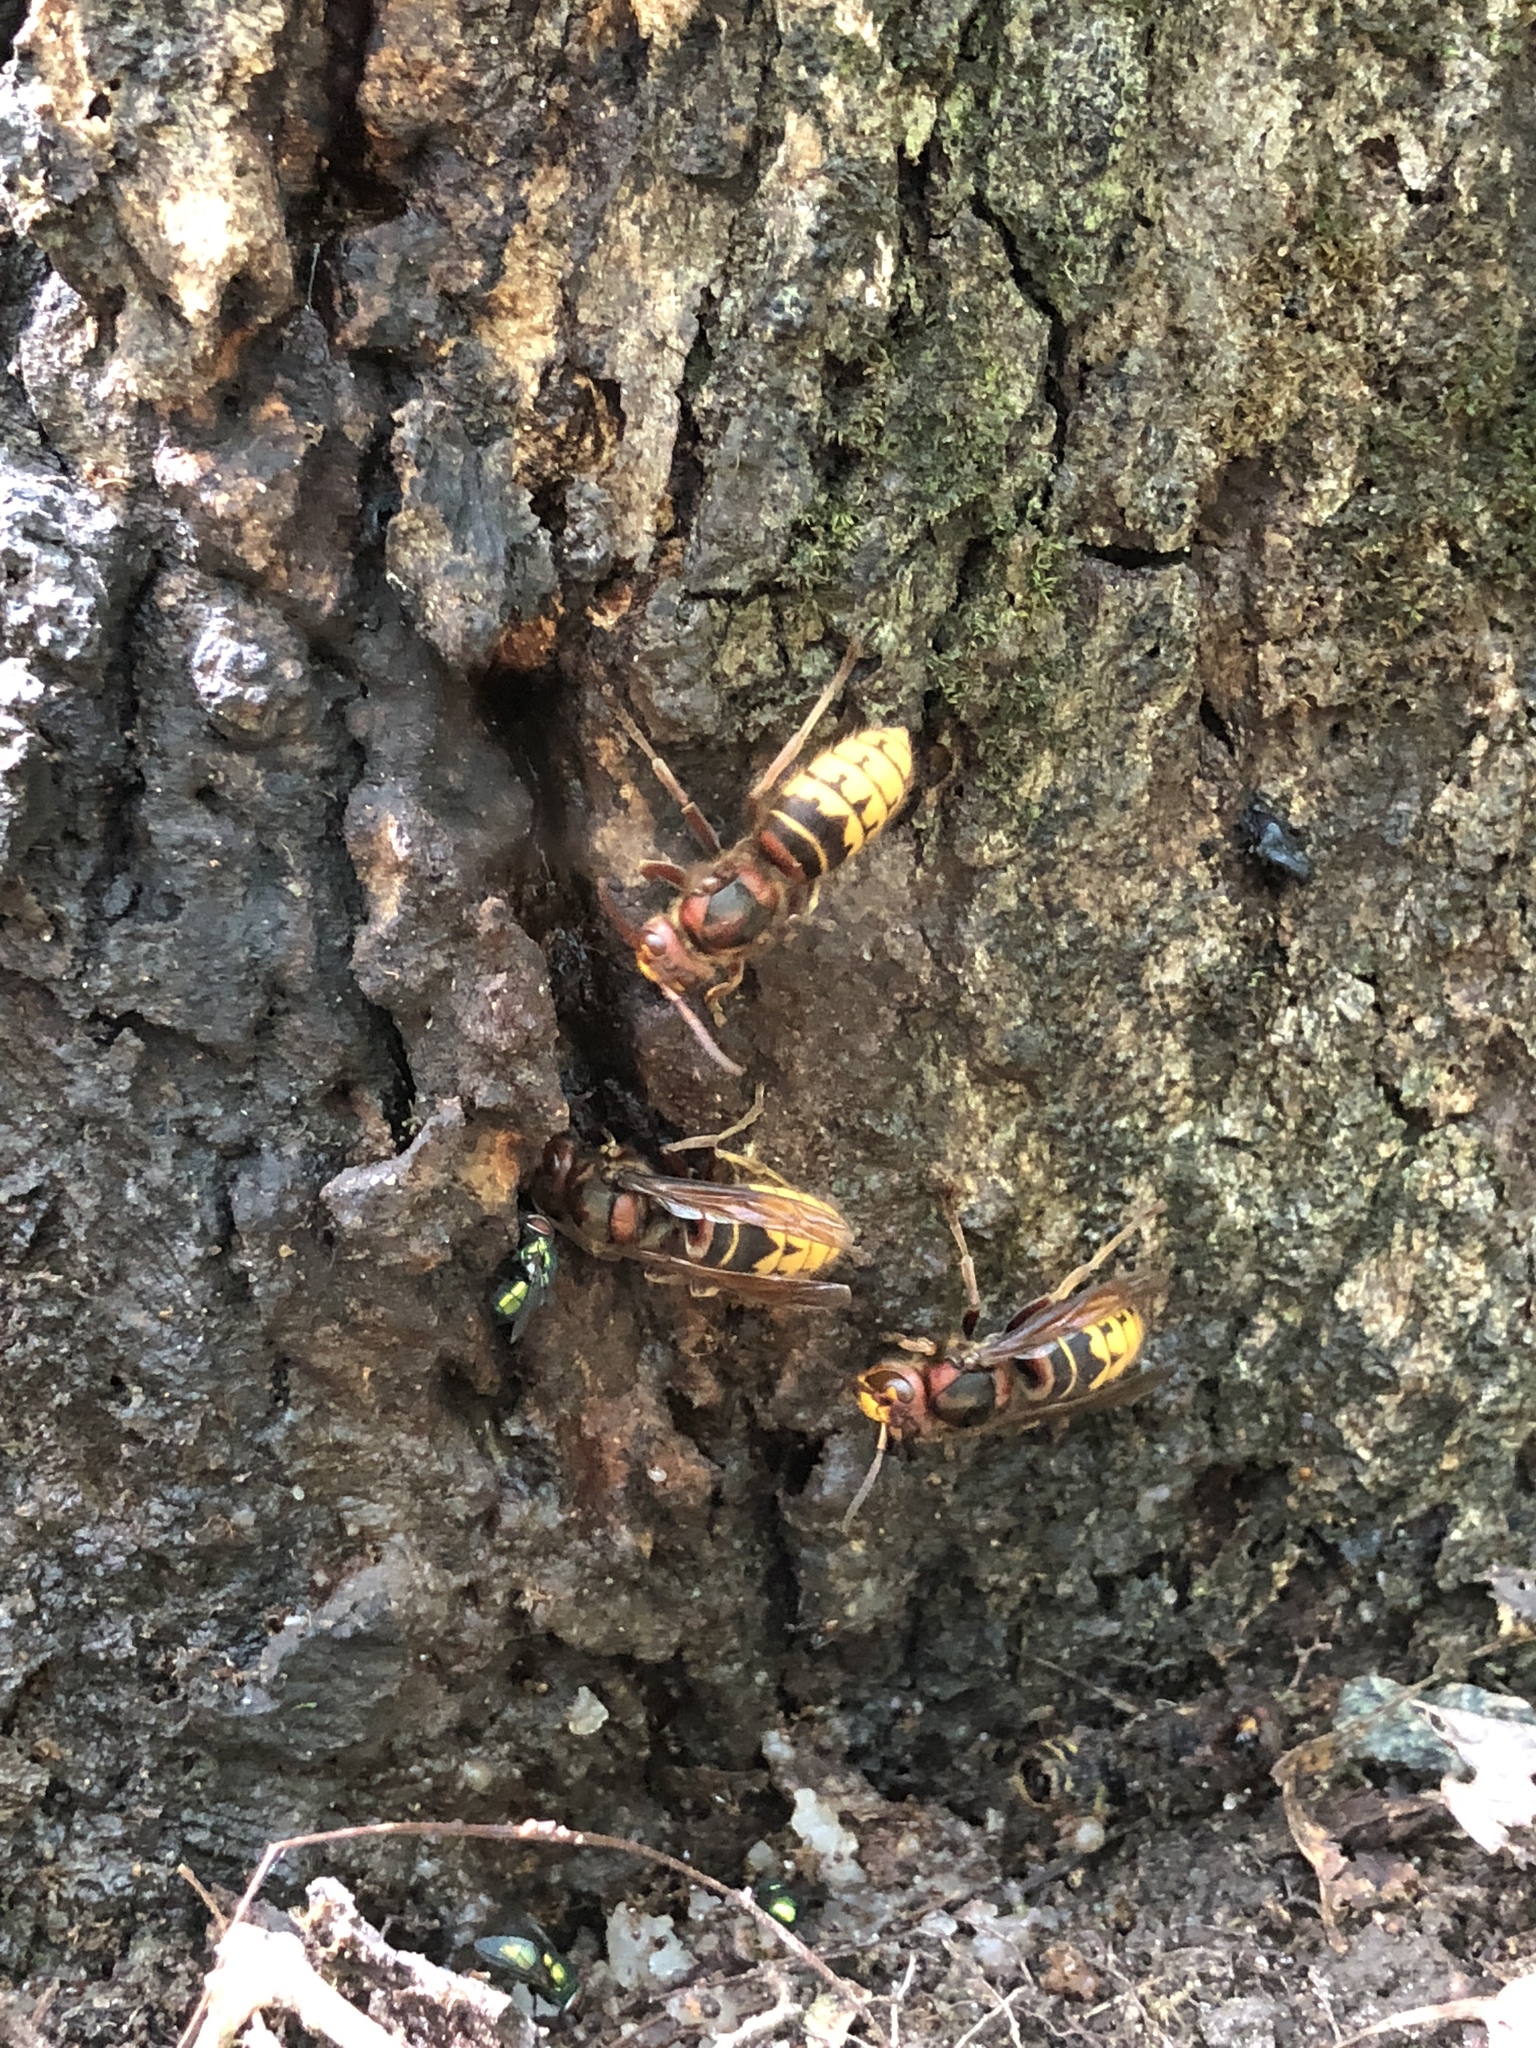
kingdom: Animalia
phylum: Arthropoda
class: Insecta
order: Hymenoptera
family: Vespidae
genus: Vespa
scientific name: Vespa crabro
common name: Hornet
